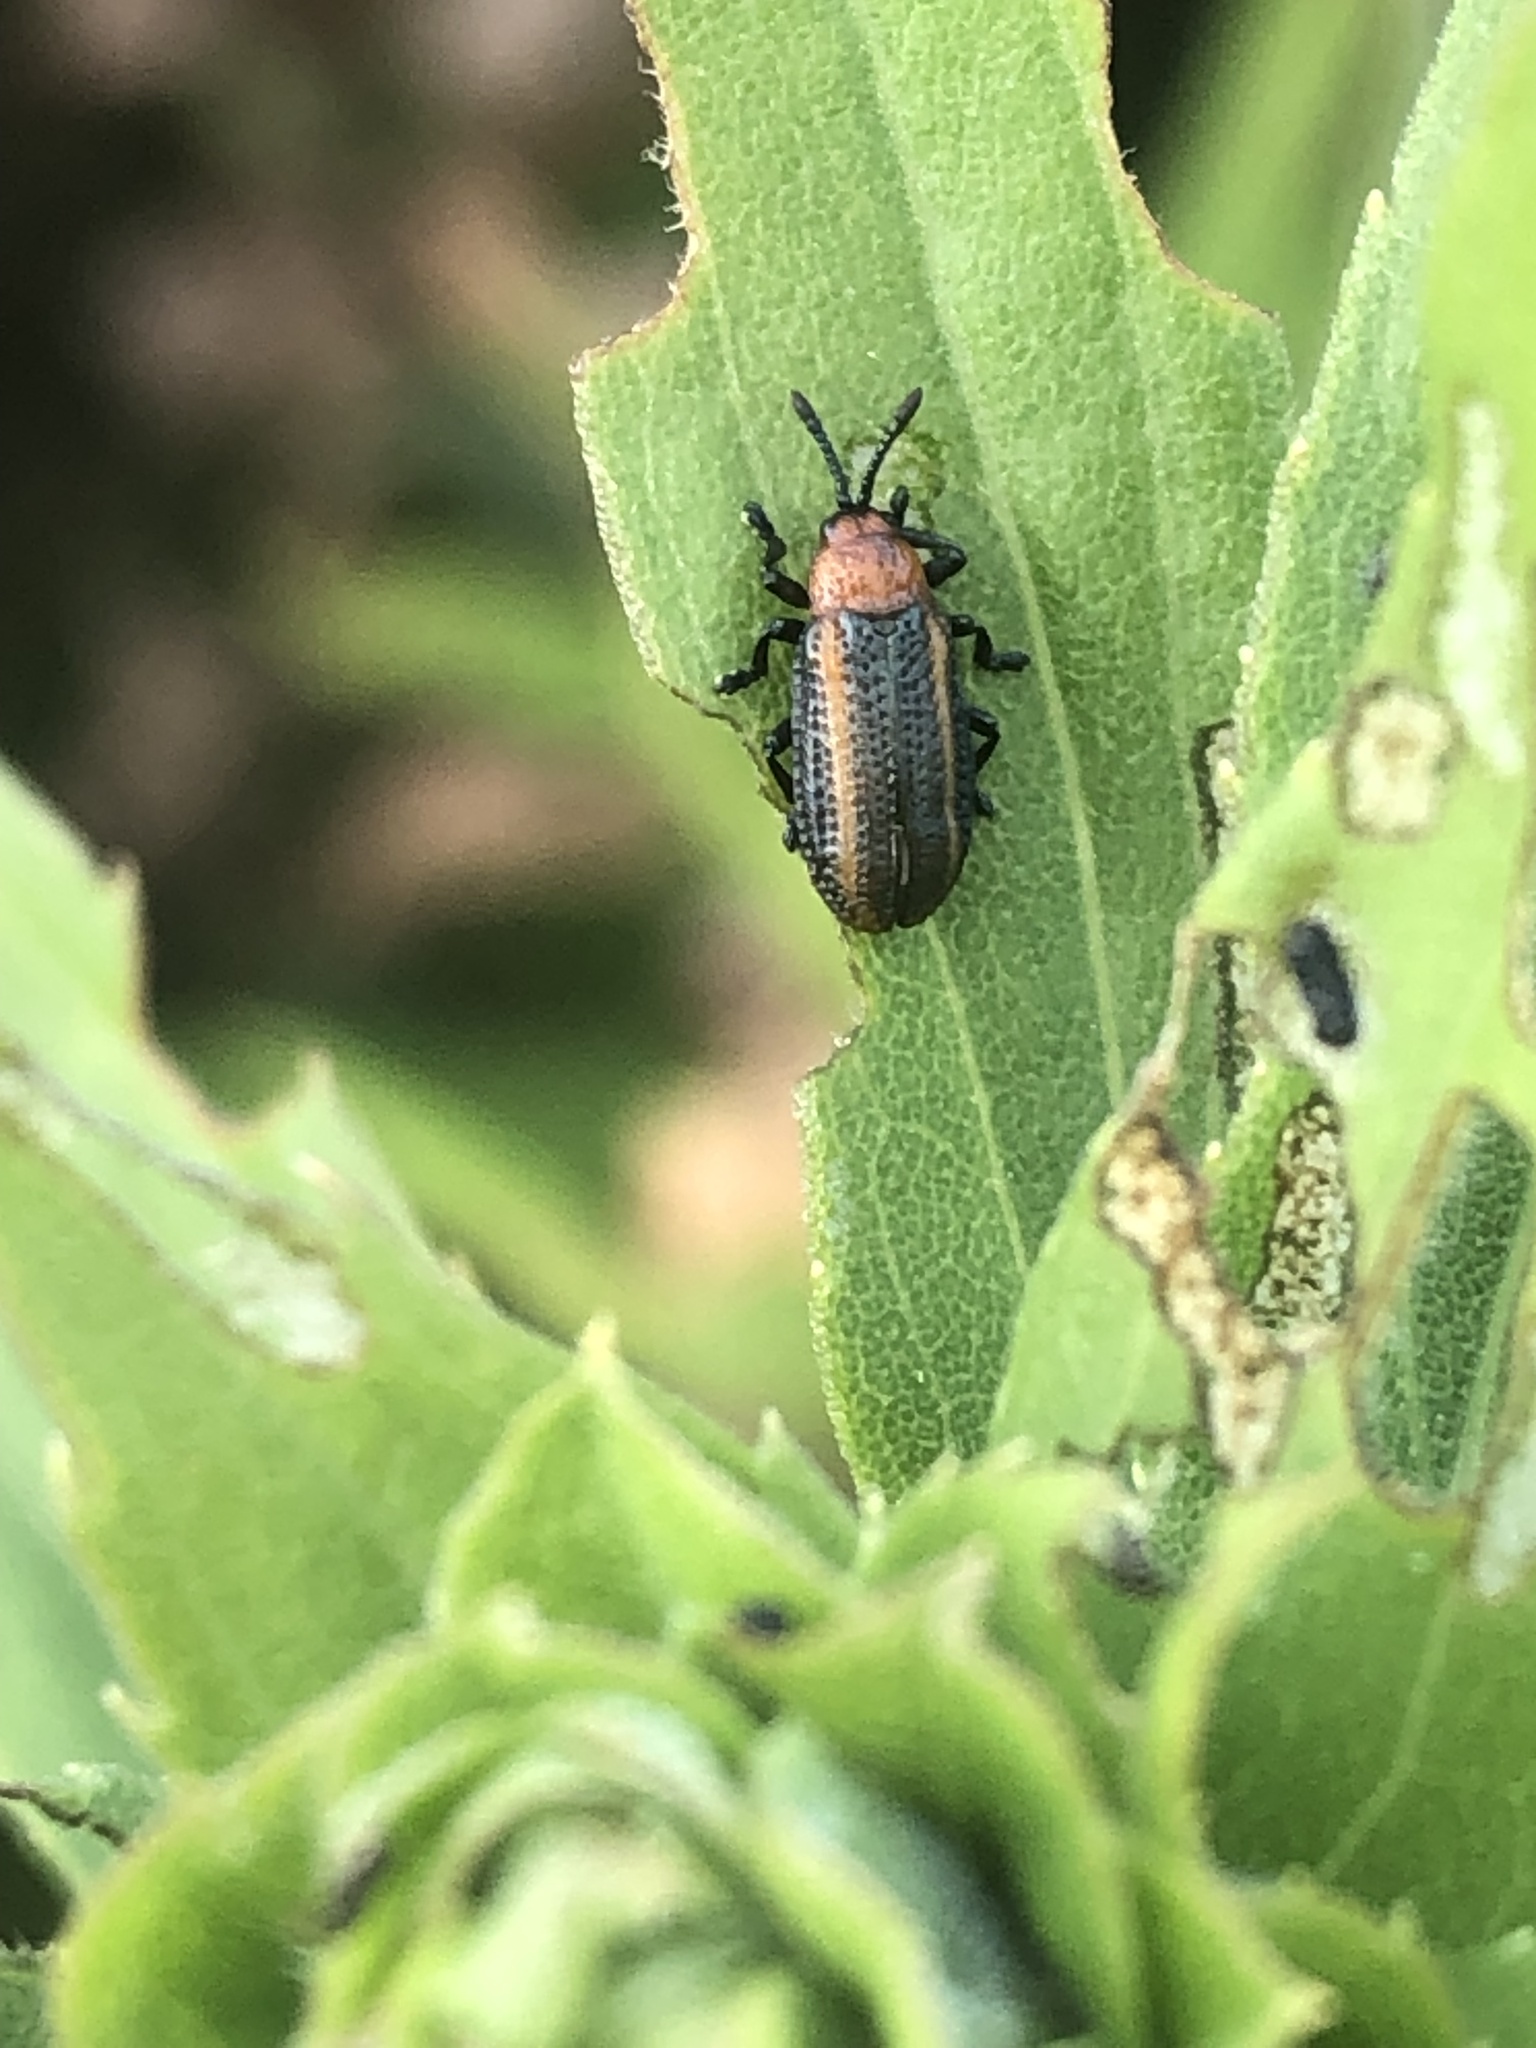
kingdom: Animalia
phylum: Arthropoda
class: Insecta
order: Coleoptera
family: Chrysomelidae
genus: Microrhopala
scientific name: Microrhopala vittata
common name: Goldenrod leaf miner beetle
